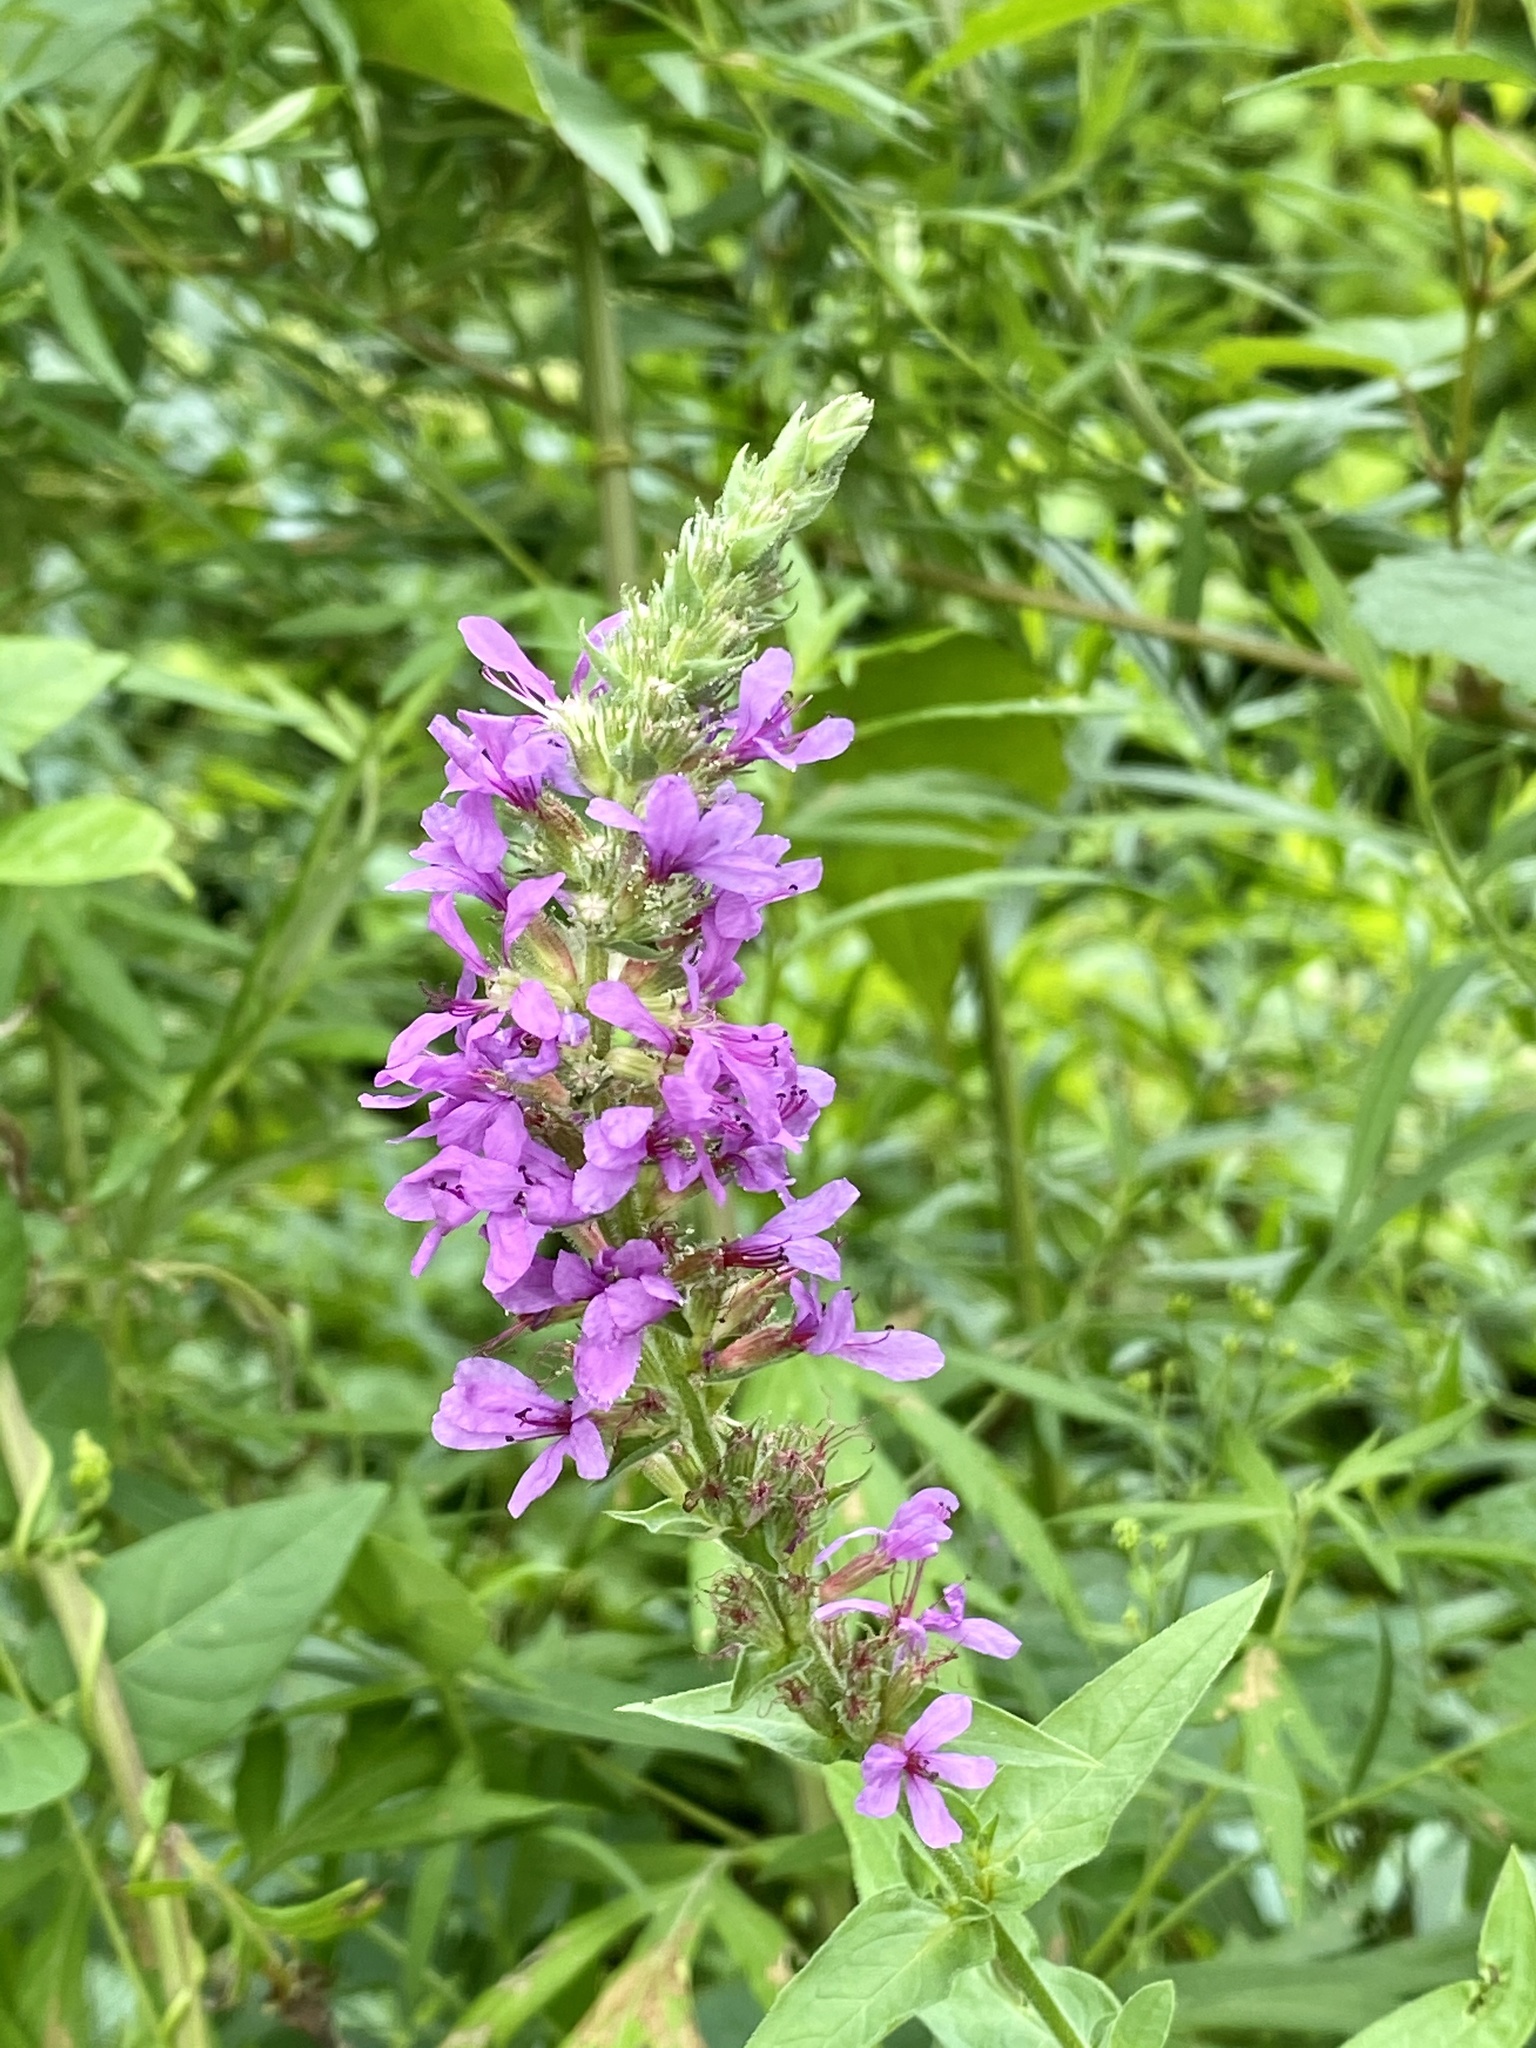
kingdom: Plantae
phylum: Tracheophyta
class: Magnoliopsida
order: Myrtales
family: Lythraceae
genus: Lythrum
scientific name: Lythrum salicaria
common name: Purple loosestrife
